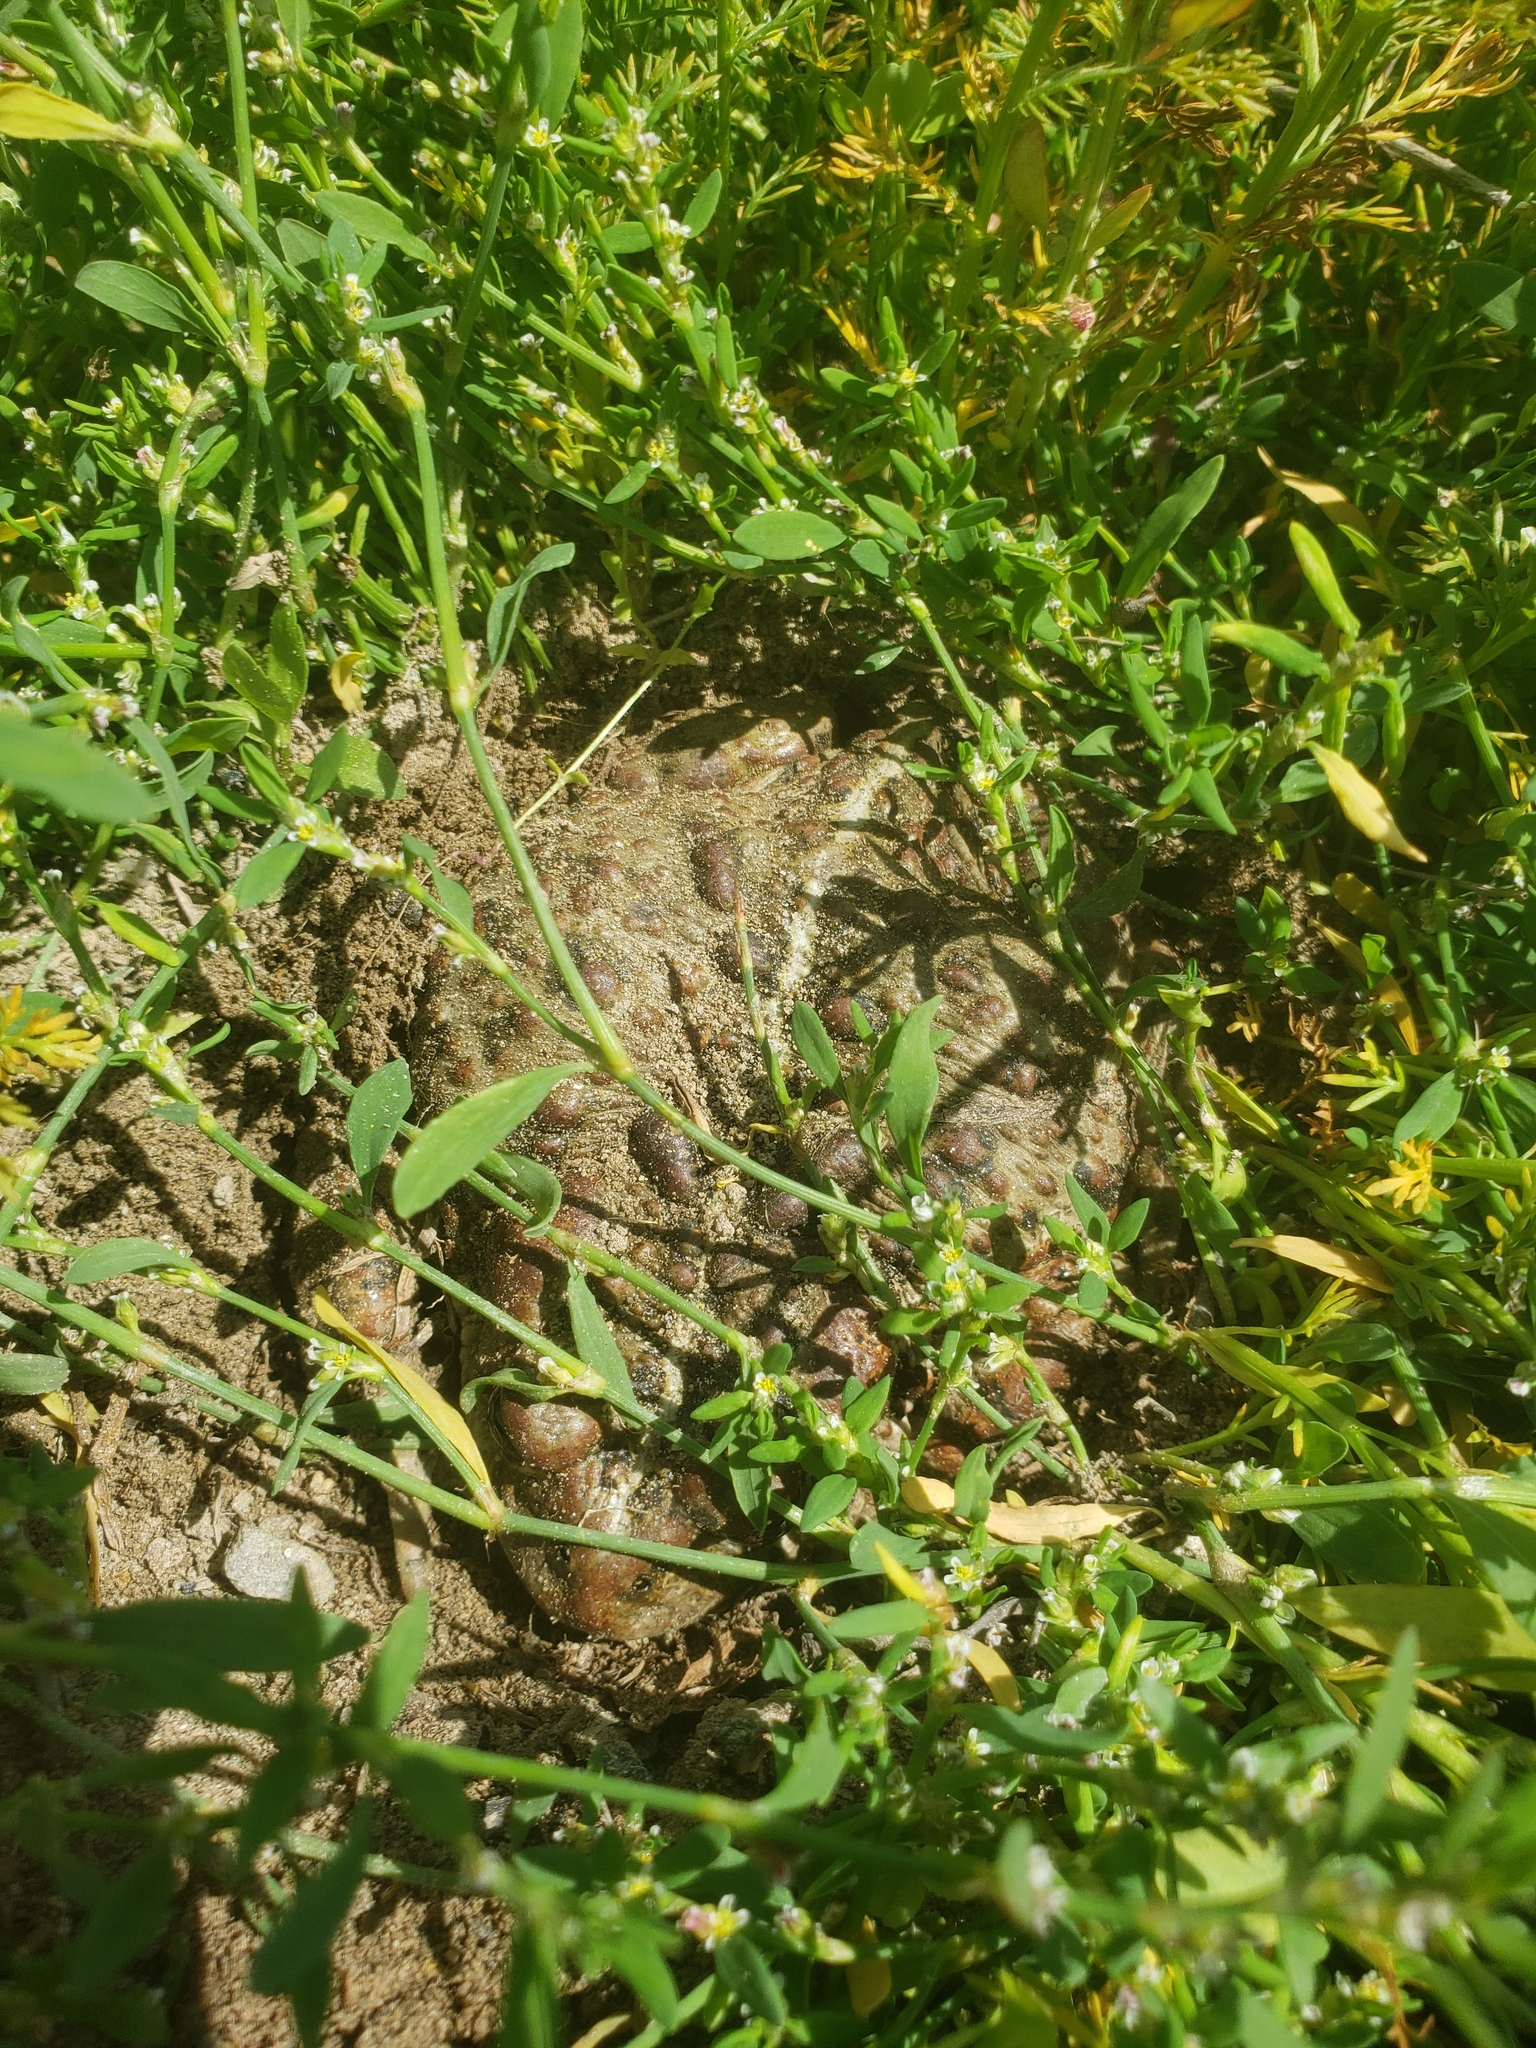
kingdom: Animalia
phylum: Chordata
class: Amphibia
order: Anura
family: Bufonidae
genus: Anaxyrus
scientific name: Anaxyrus boreas
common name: Western toad
